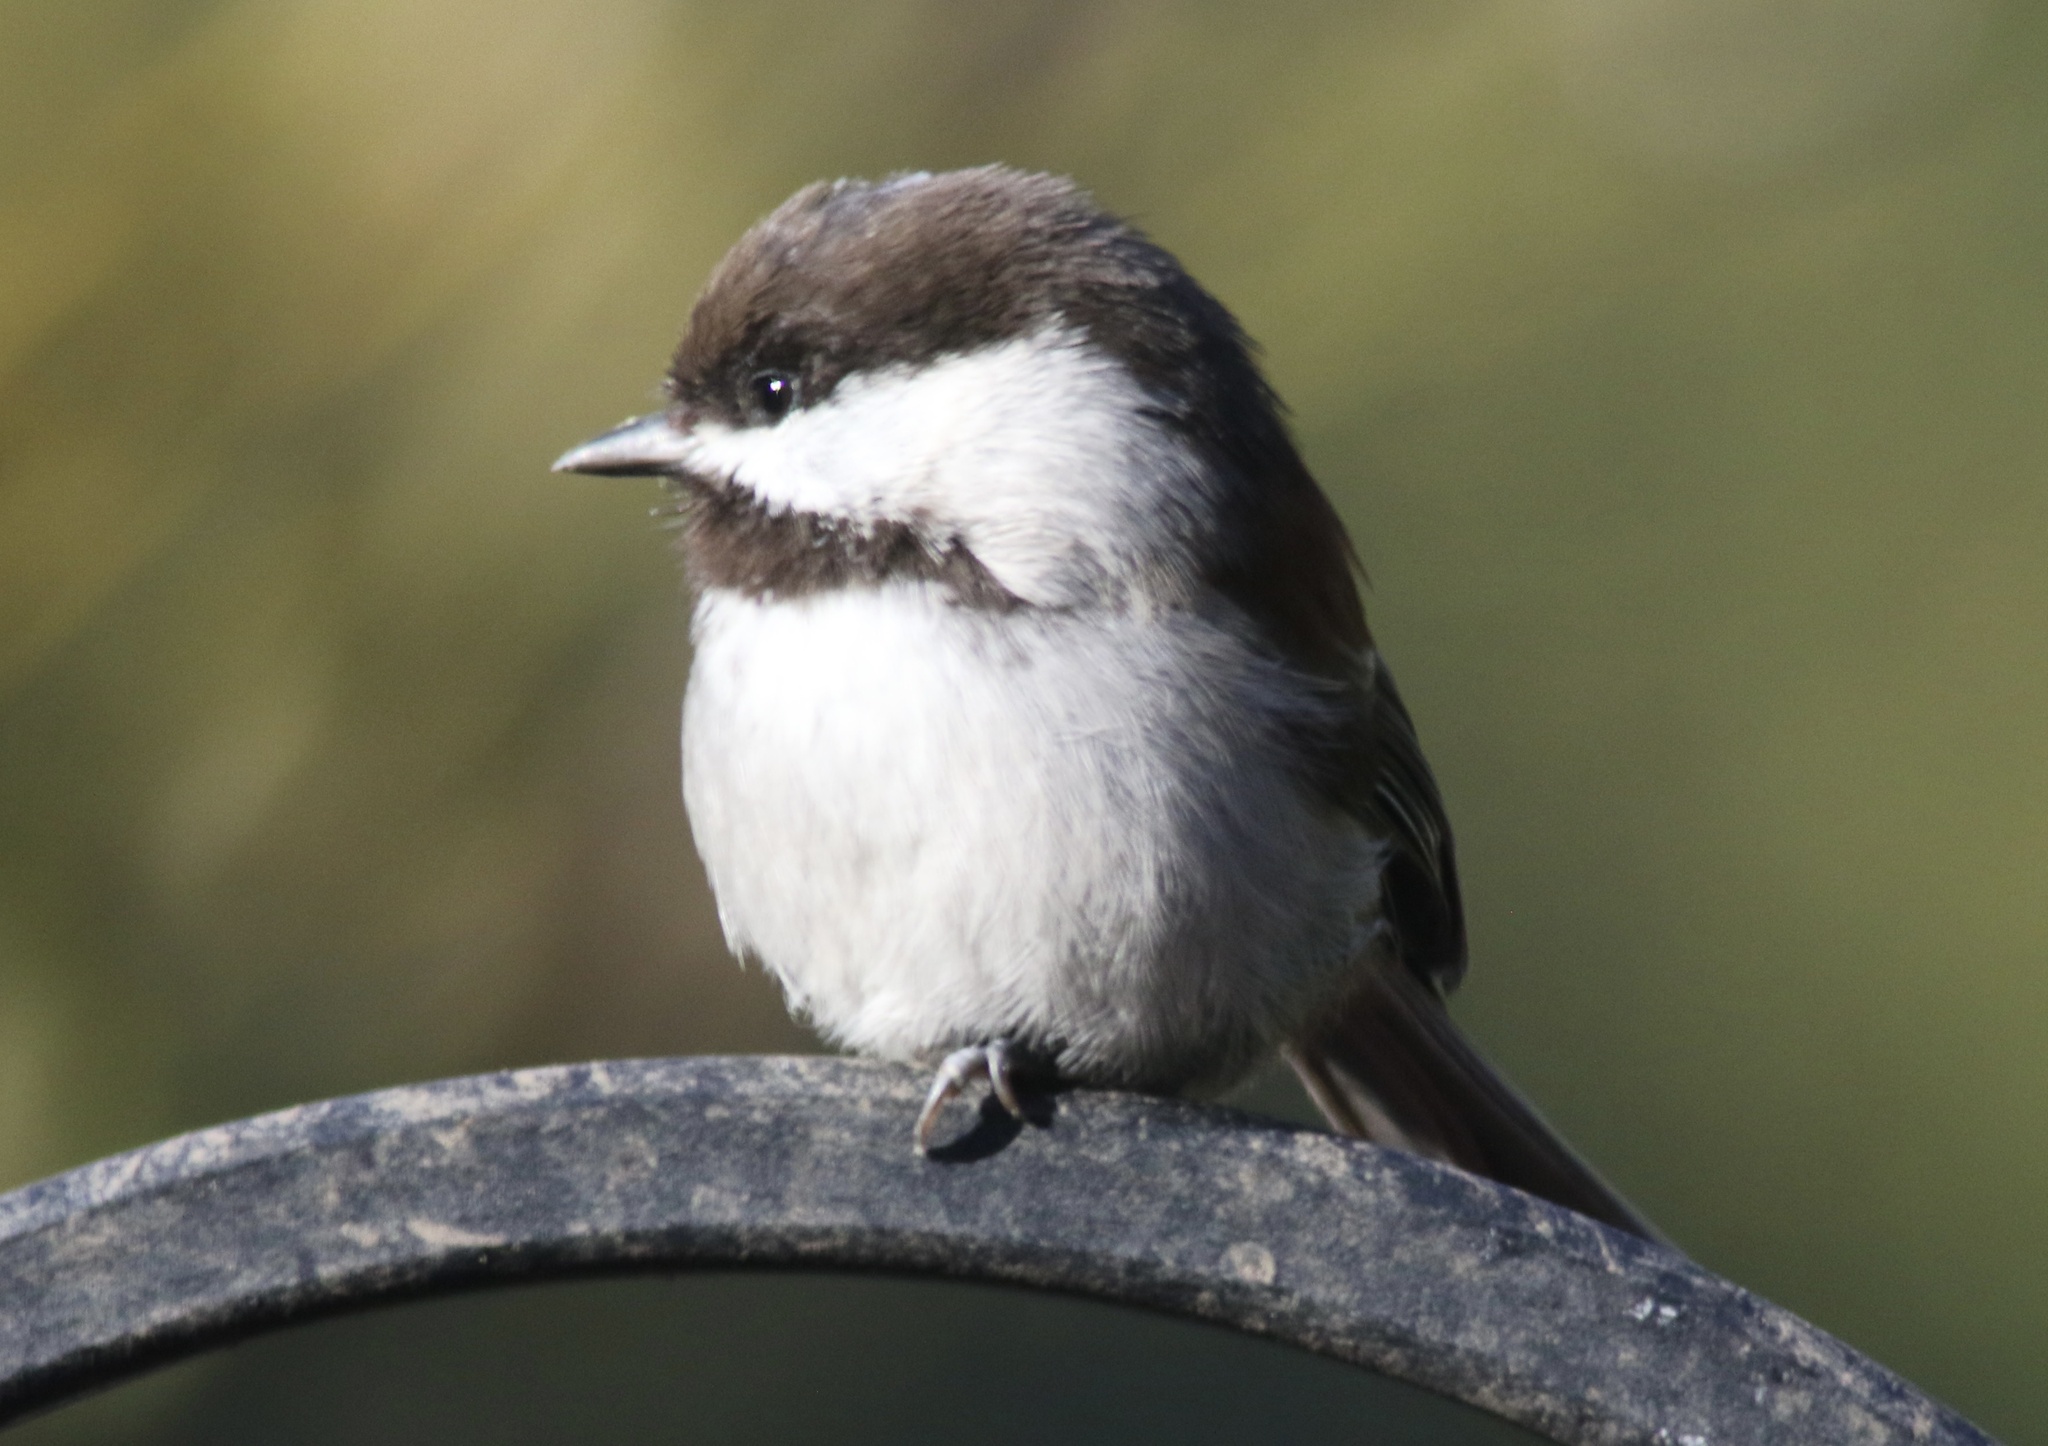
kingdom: Animalia
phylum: Chordata
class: Aves
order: Passeriformes
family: Paridae
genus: Poecile
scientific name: Poecile rufescens
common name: Chestnut-backed chickadee
